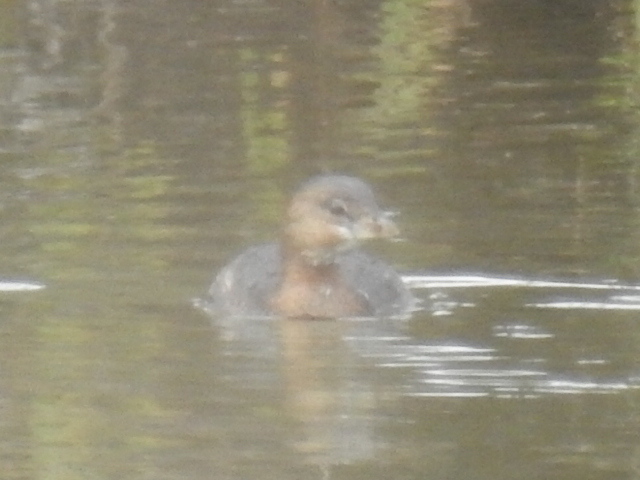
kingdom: Animalia
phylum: Chordata
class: Aves
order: Podicipediformes
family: Podicipedidae
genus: Podilymbus
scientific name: Podilymbus podiceps
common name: Pied-billed grebe
